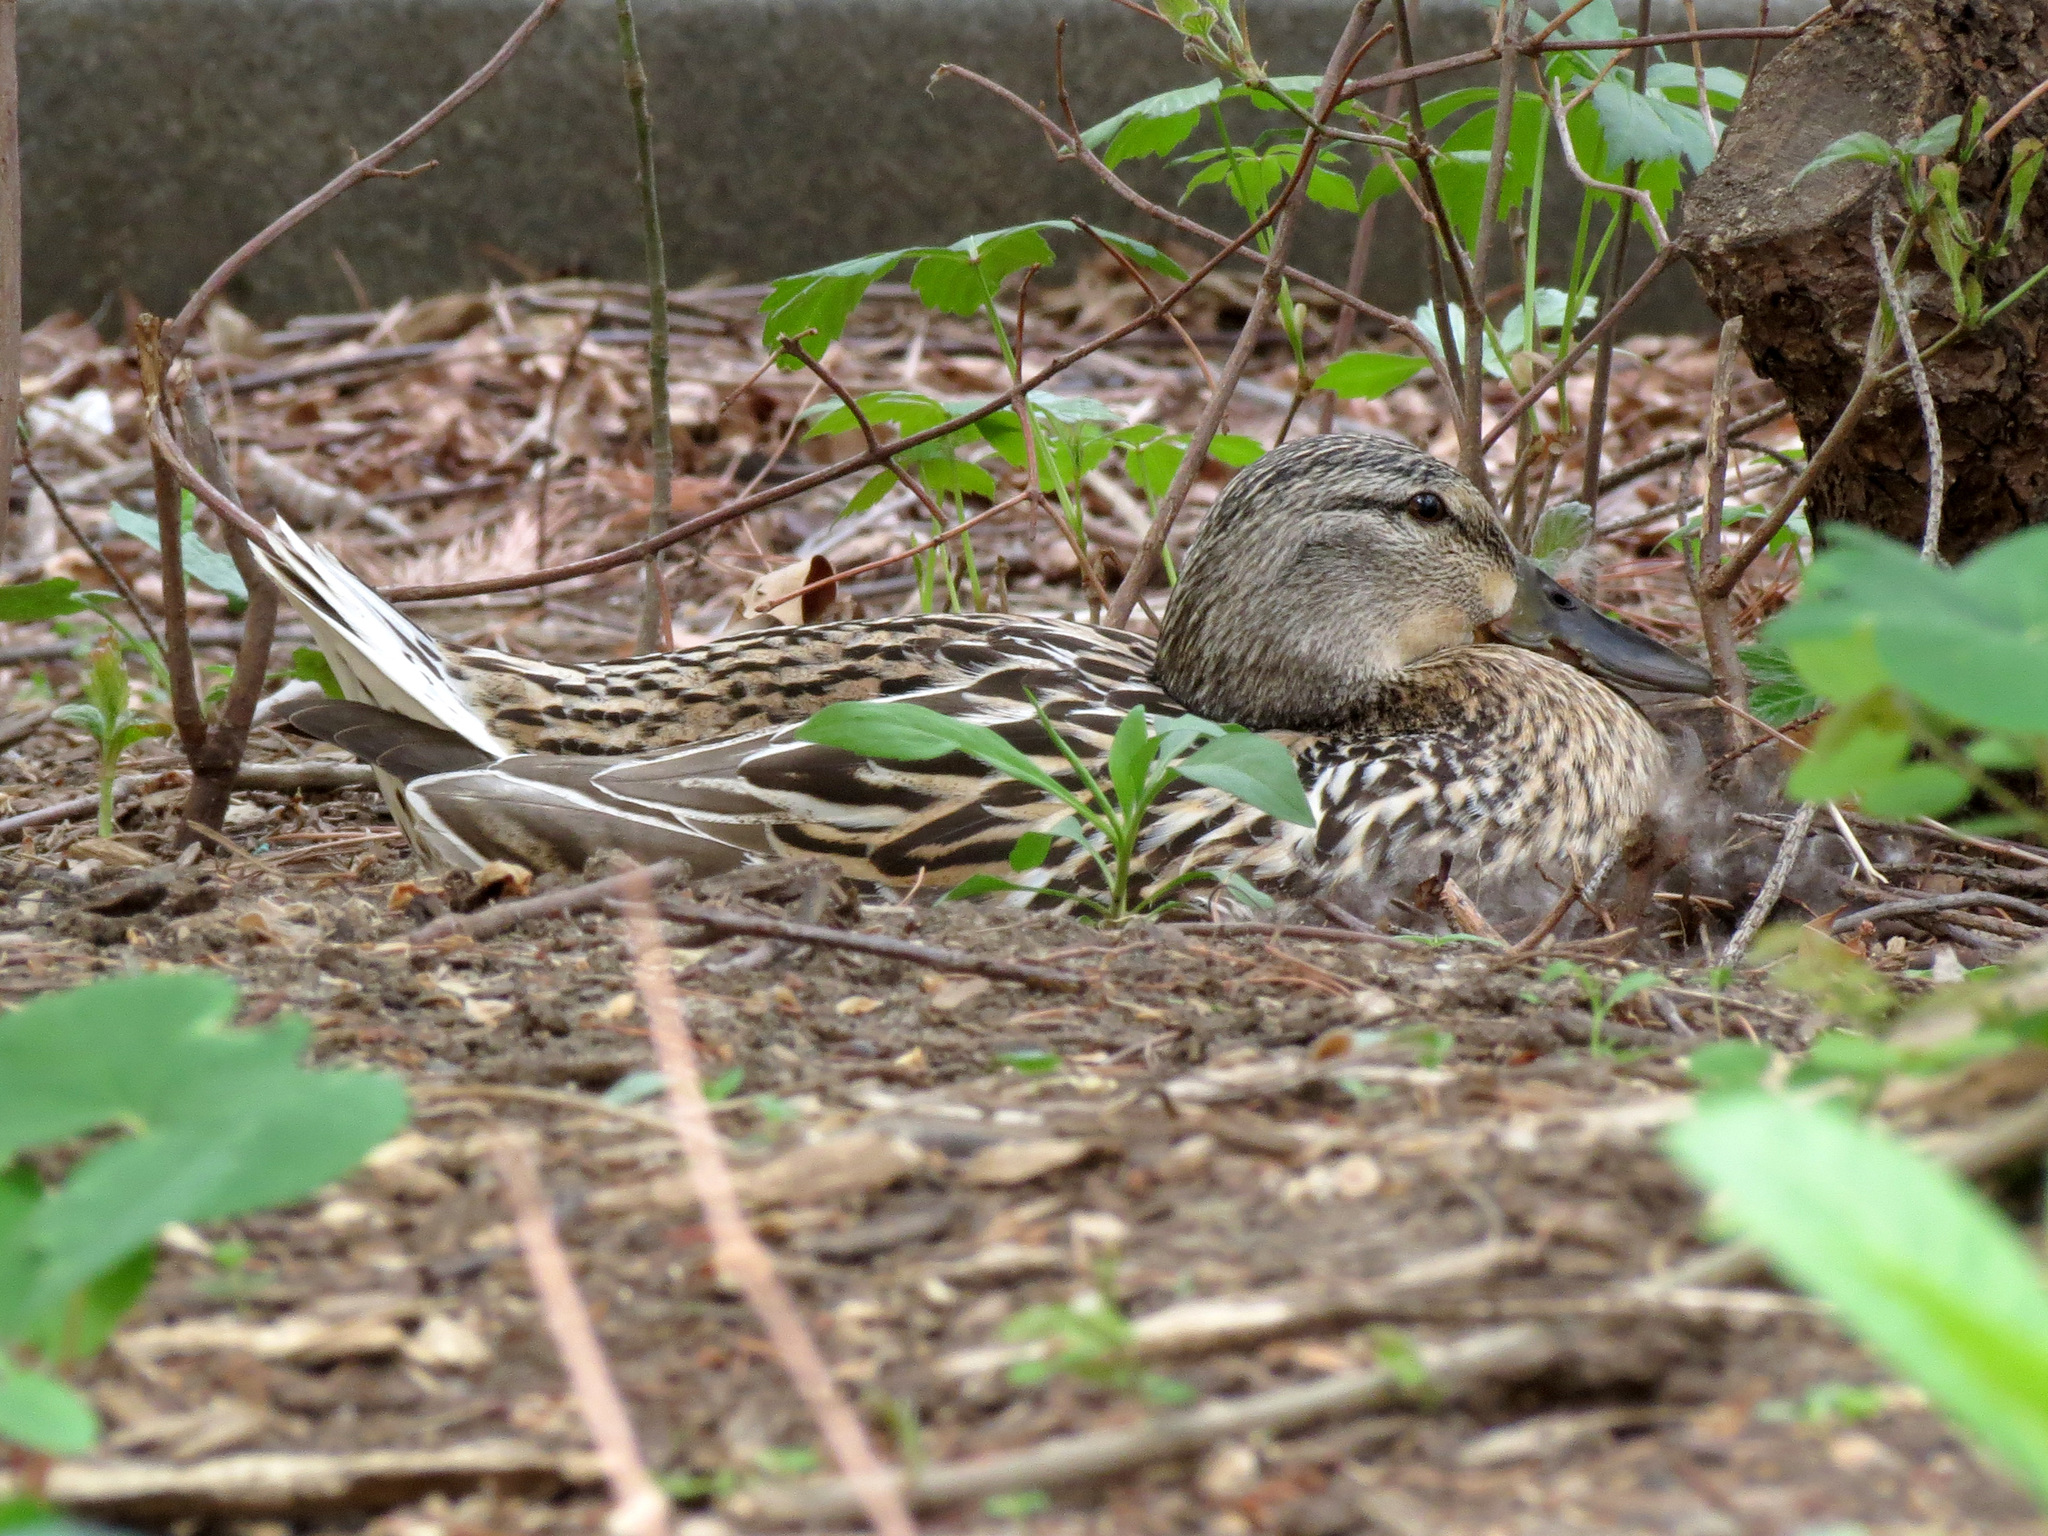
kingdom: Animalia
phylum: Chordata
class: Aves
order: Anseriformes
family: Anatidae
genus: Anas
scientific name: Anas platyrhynchos
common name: Mallard
